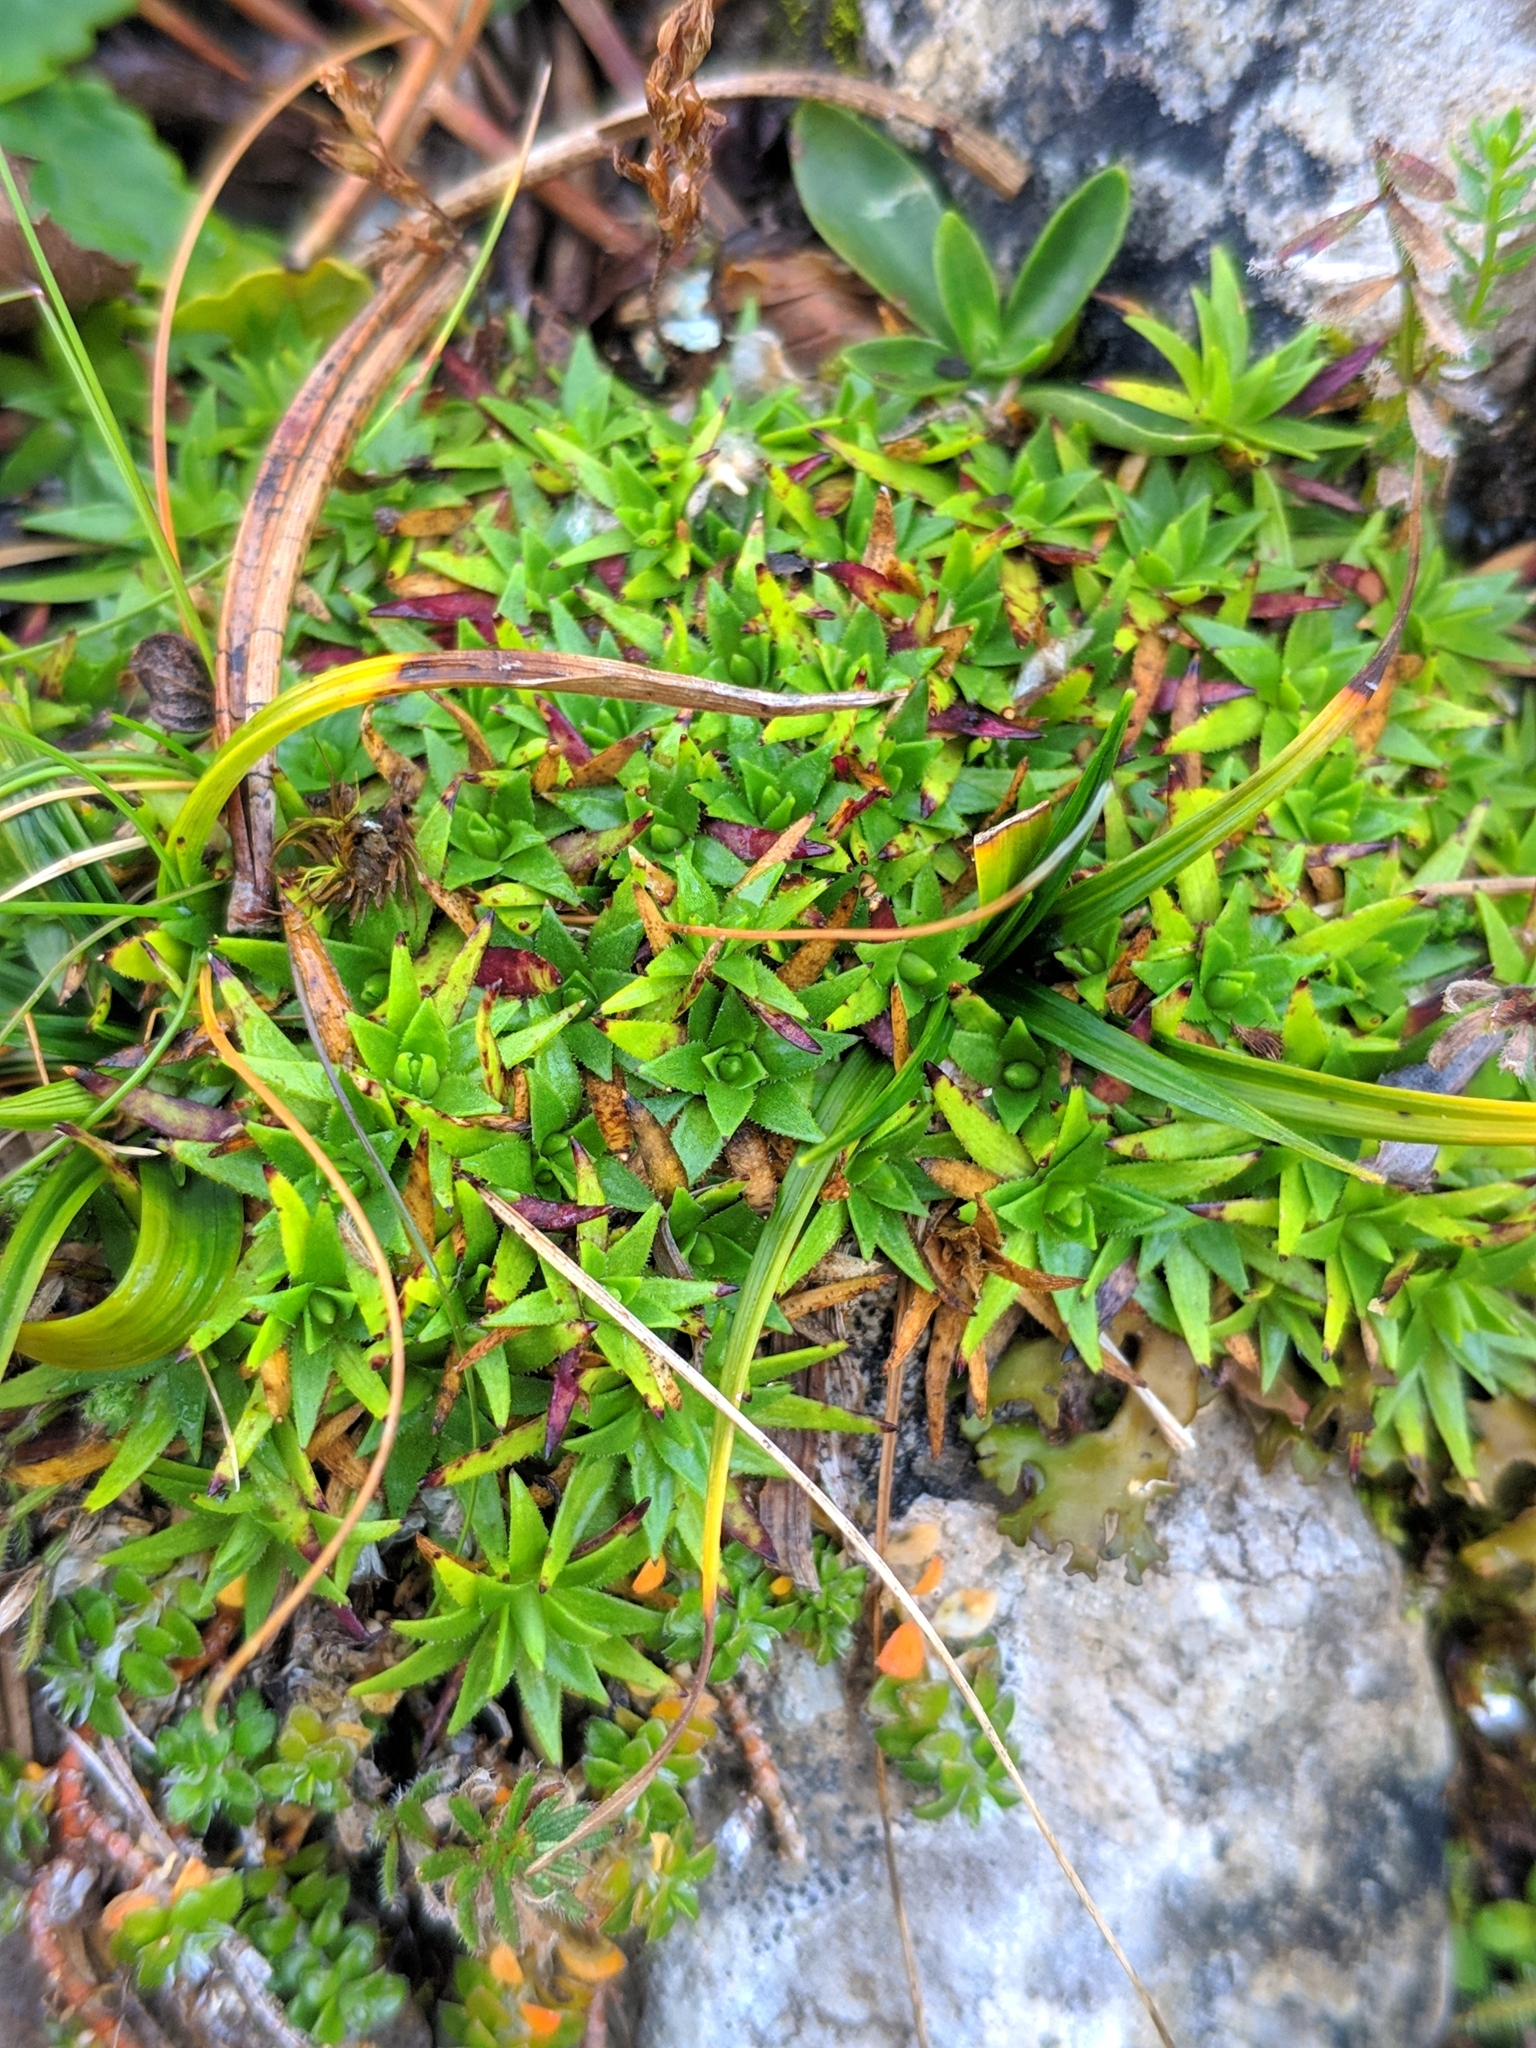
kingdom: Plantae
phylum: Tracheophyta
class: Magnoliopsida
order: Caryophyllales
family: Caryophyllaceae
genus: Silene
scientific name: Silene acaulis
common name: Moss campion
